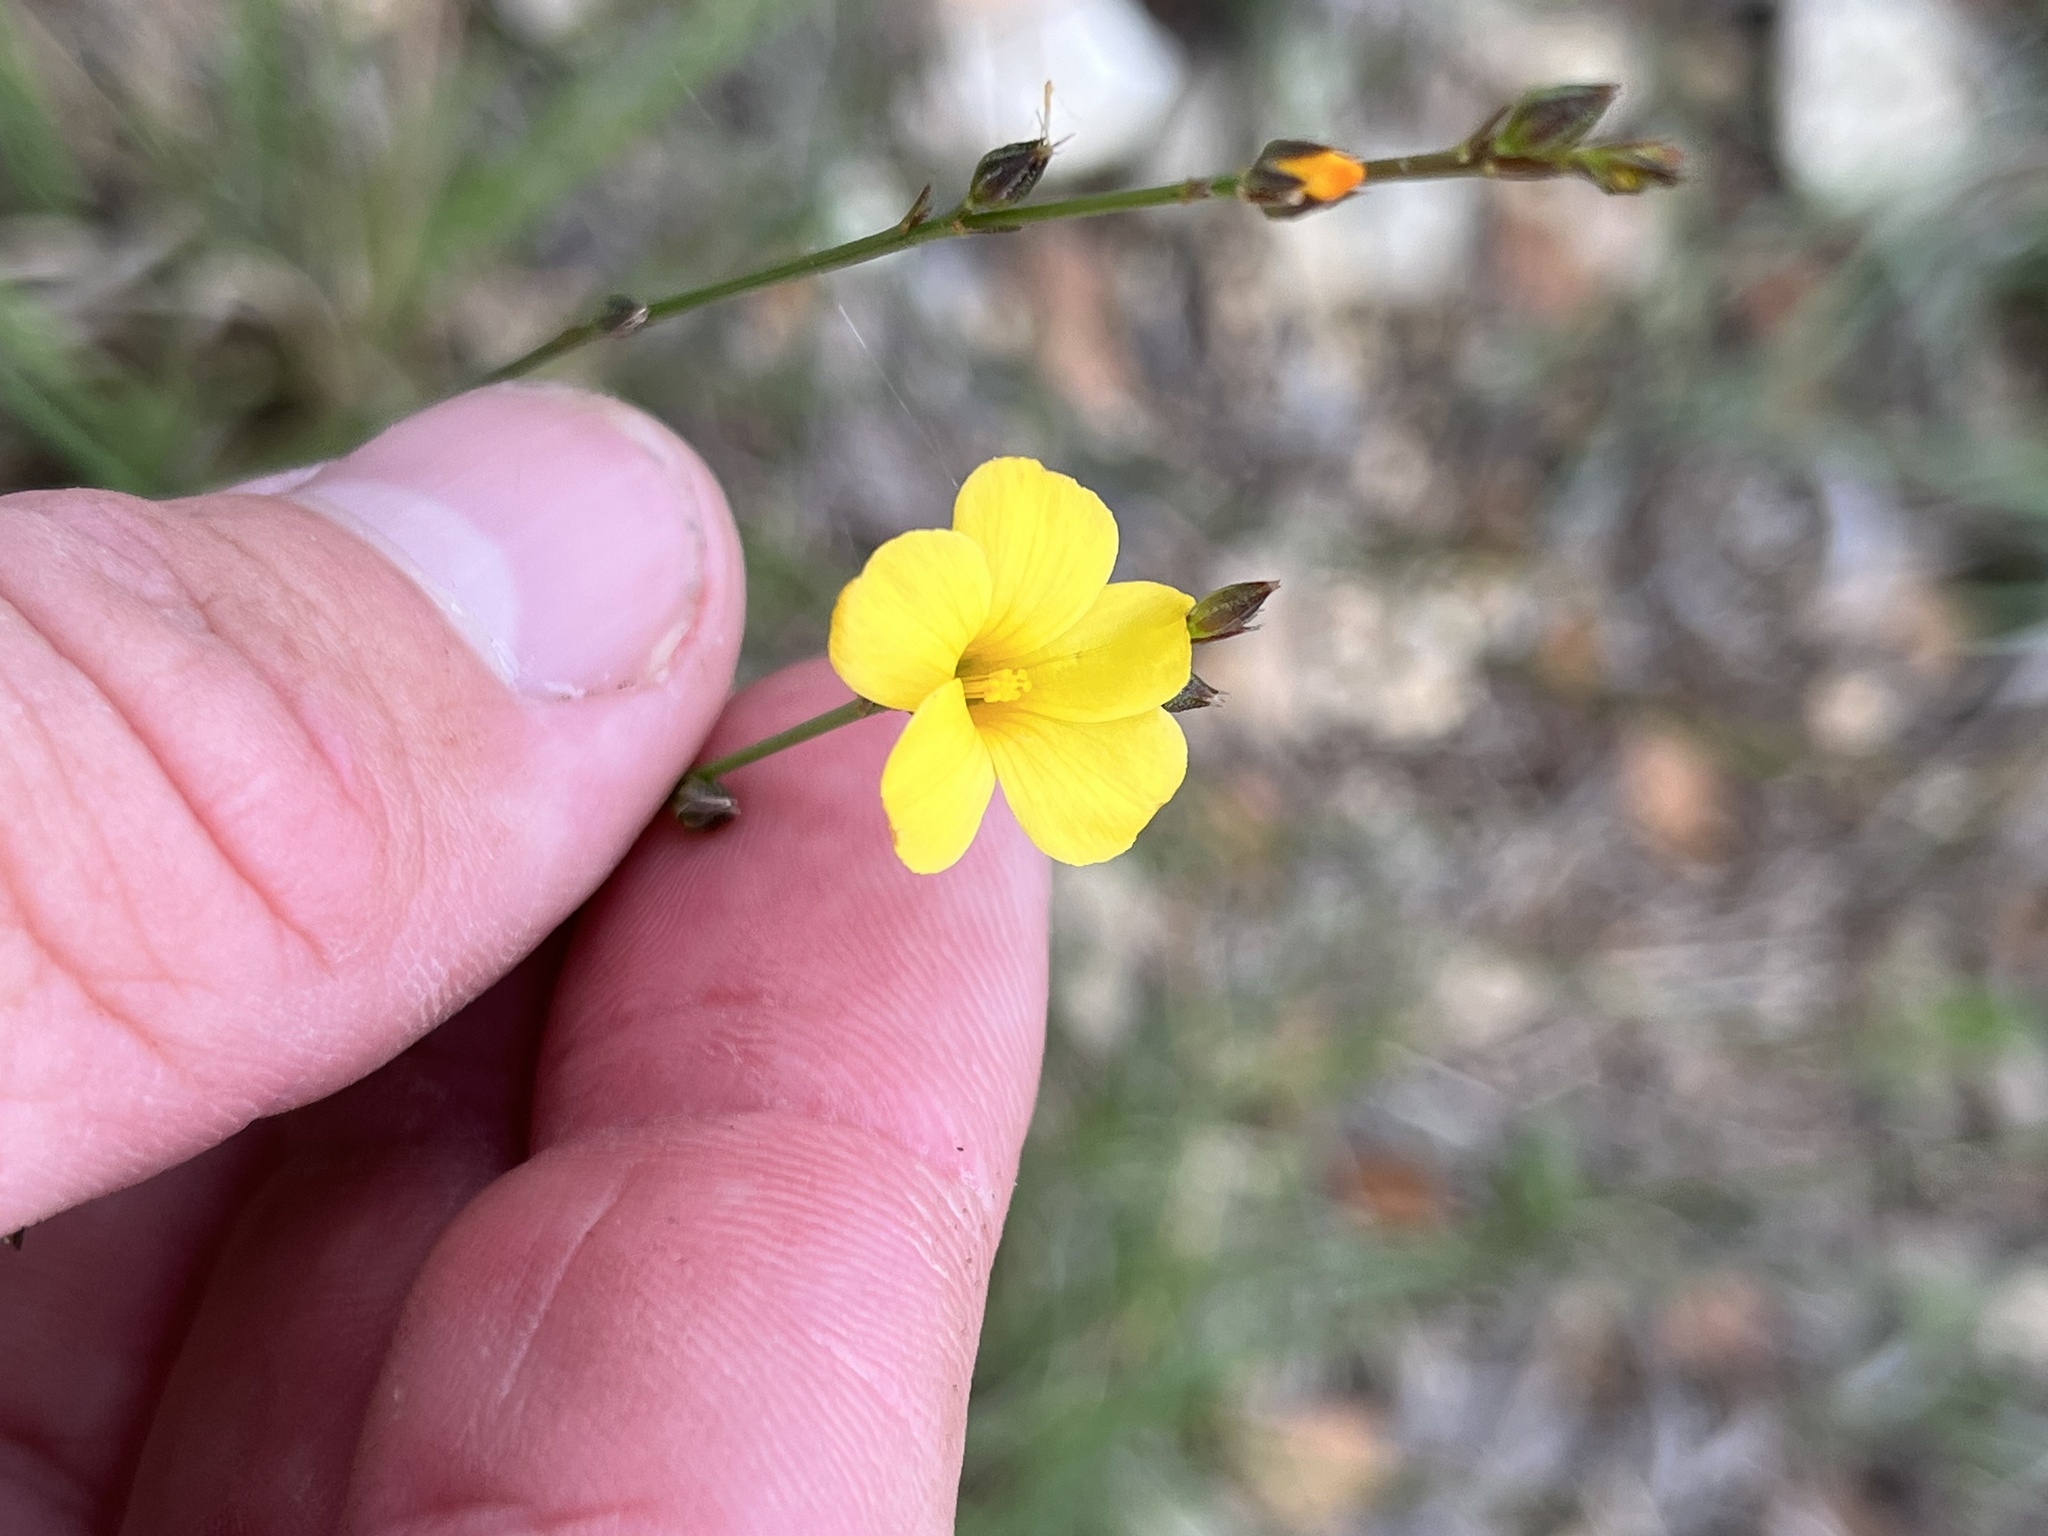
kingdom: Plantae
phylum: Tracheophyta
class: Magnoliopsida
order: Malpighiales
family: Linaceae
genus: Linum
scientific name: Linum rupestre
